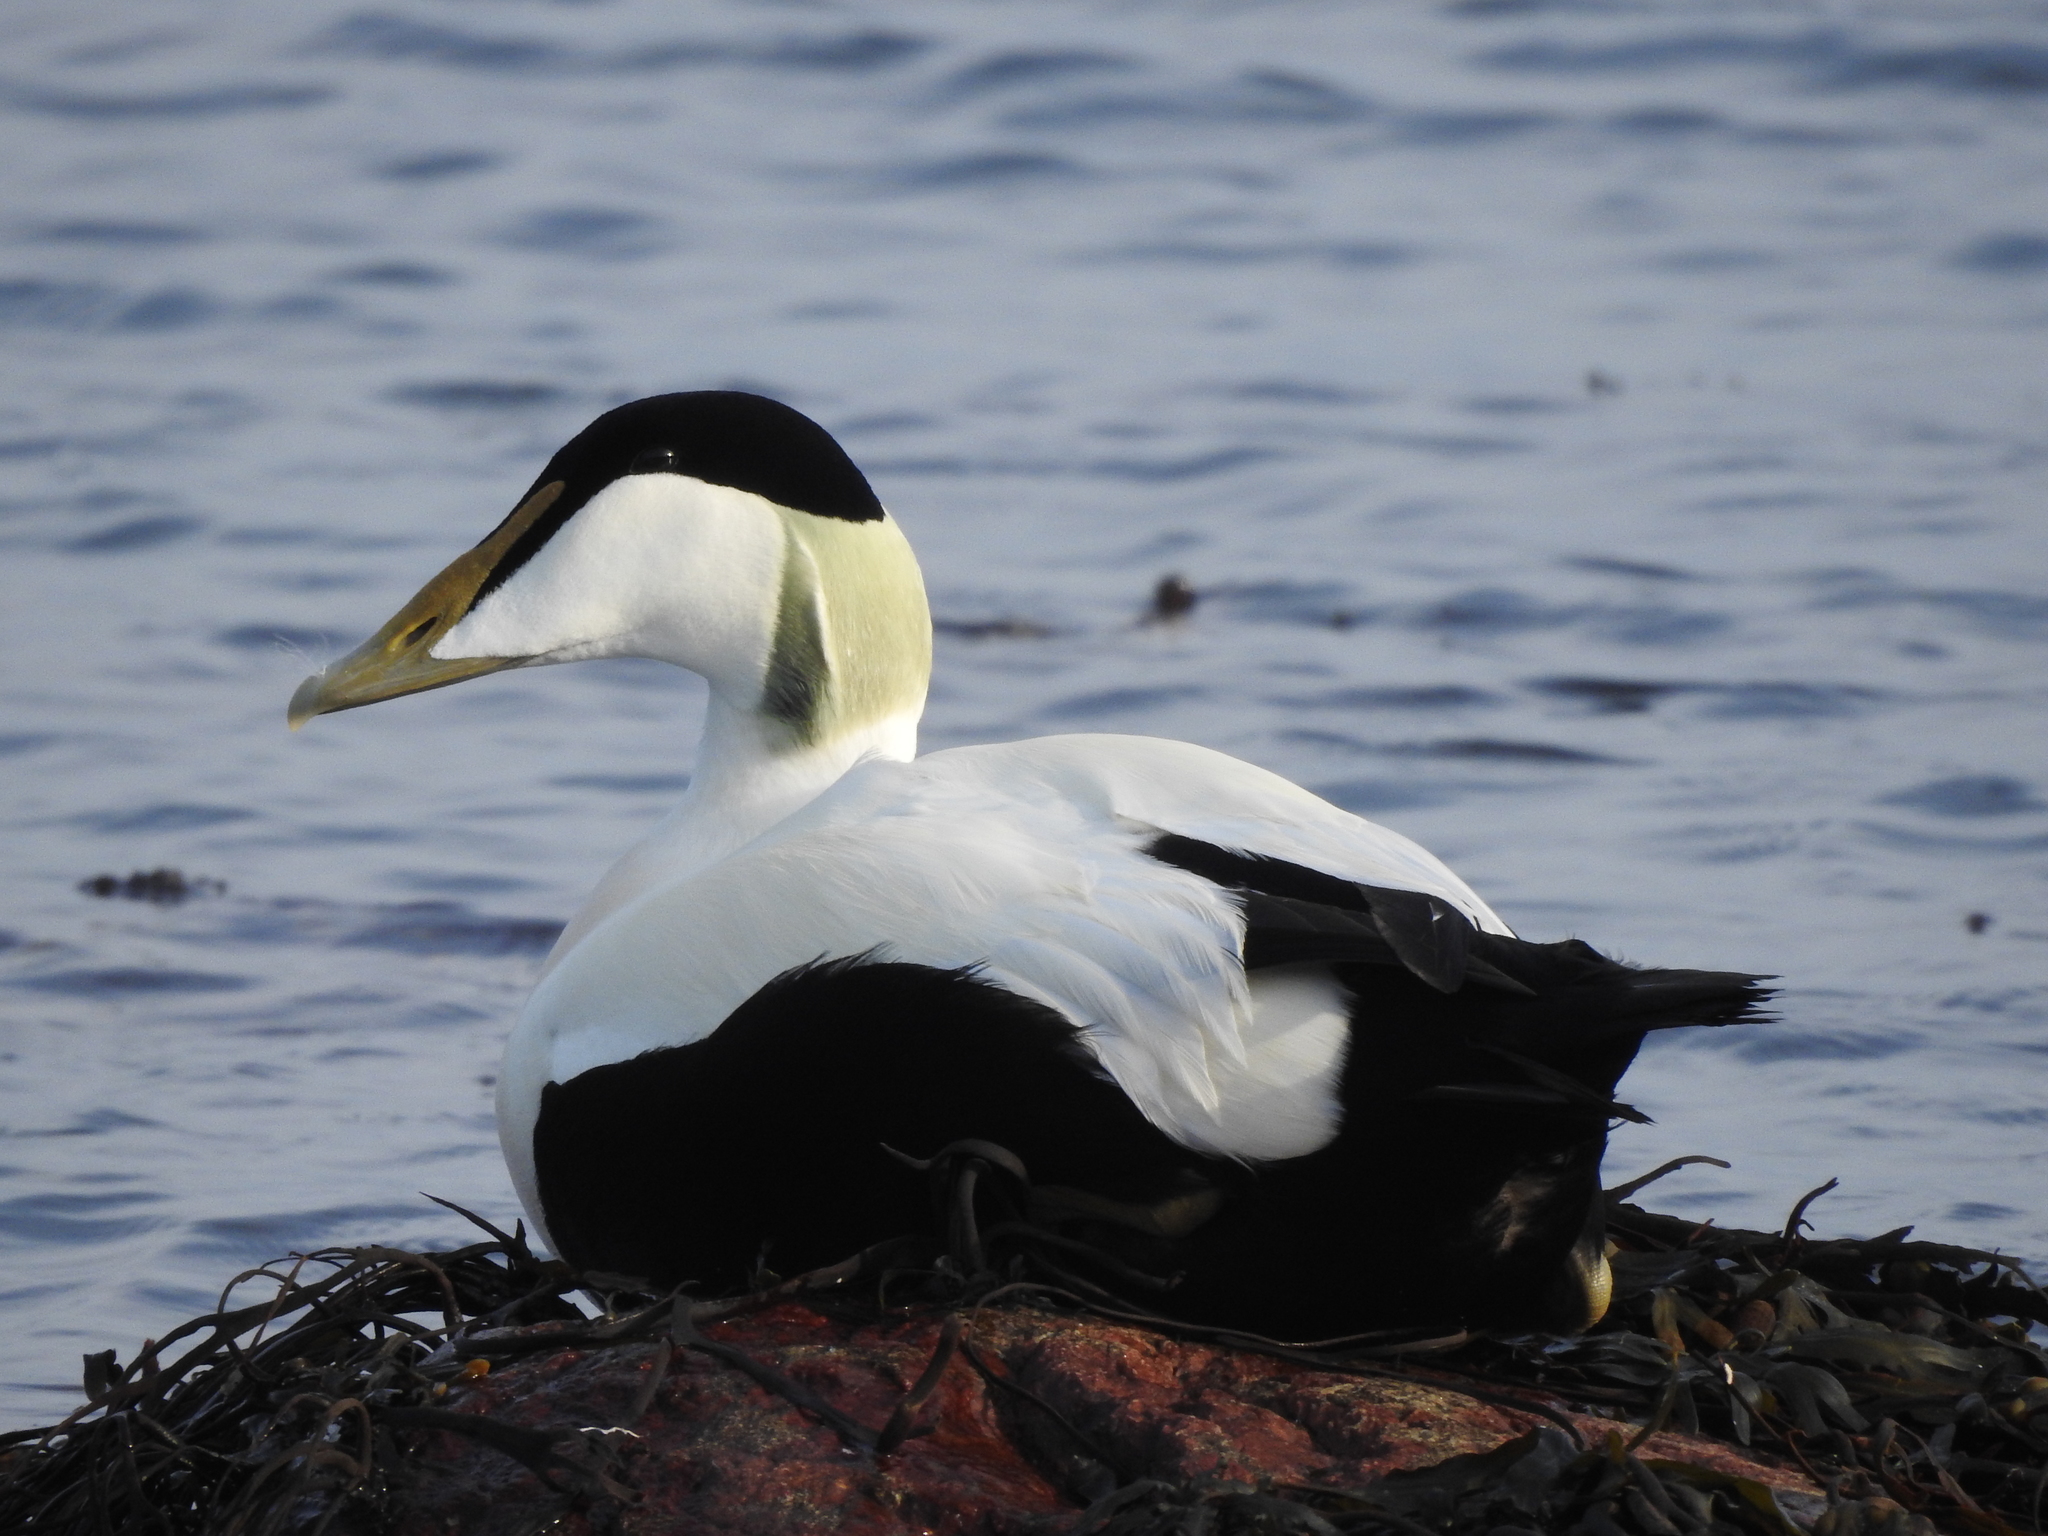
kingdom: Animalia
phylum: Chordata
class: Aves
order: Anseriformes
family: Anatidae
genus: Somateria
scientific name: Somateria mollissima
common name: Common eider
